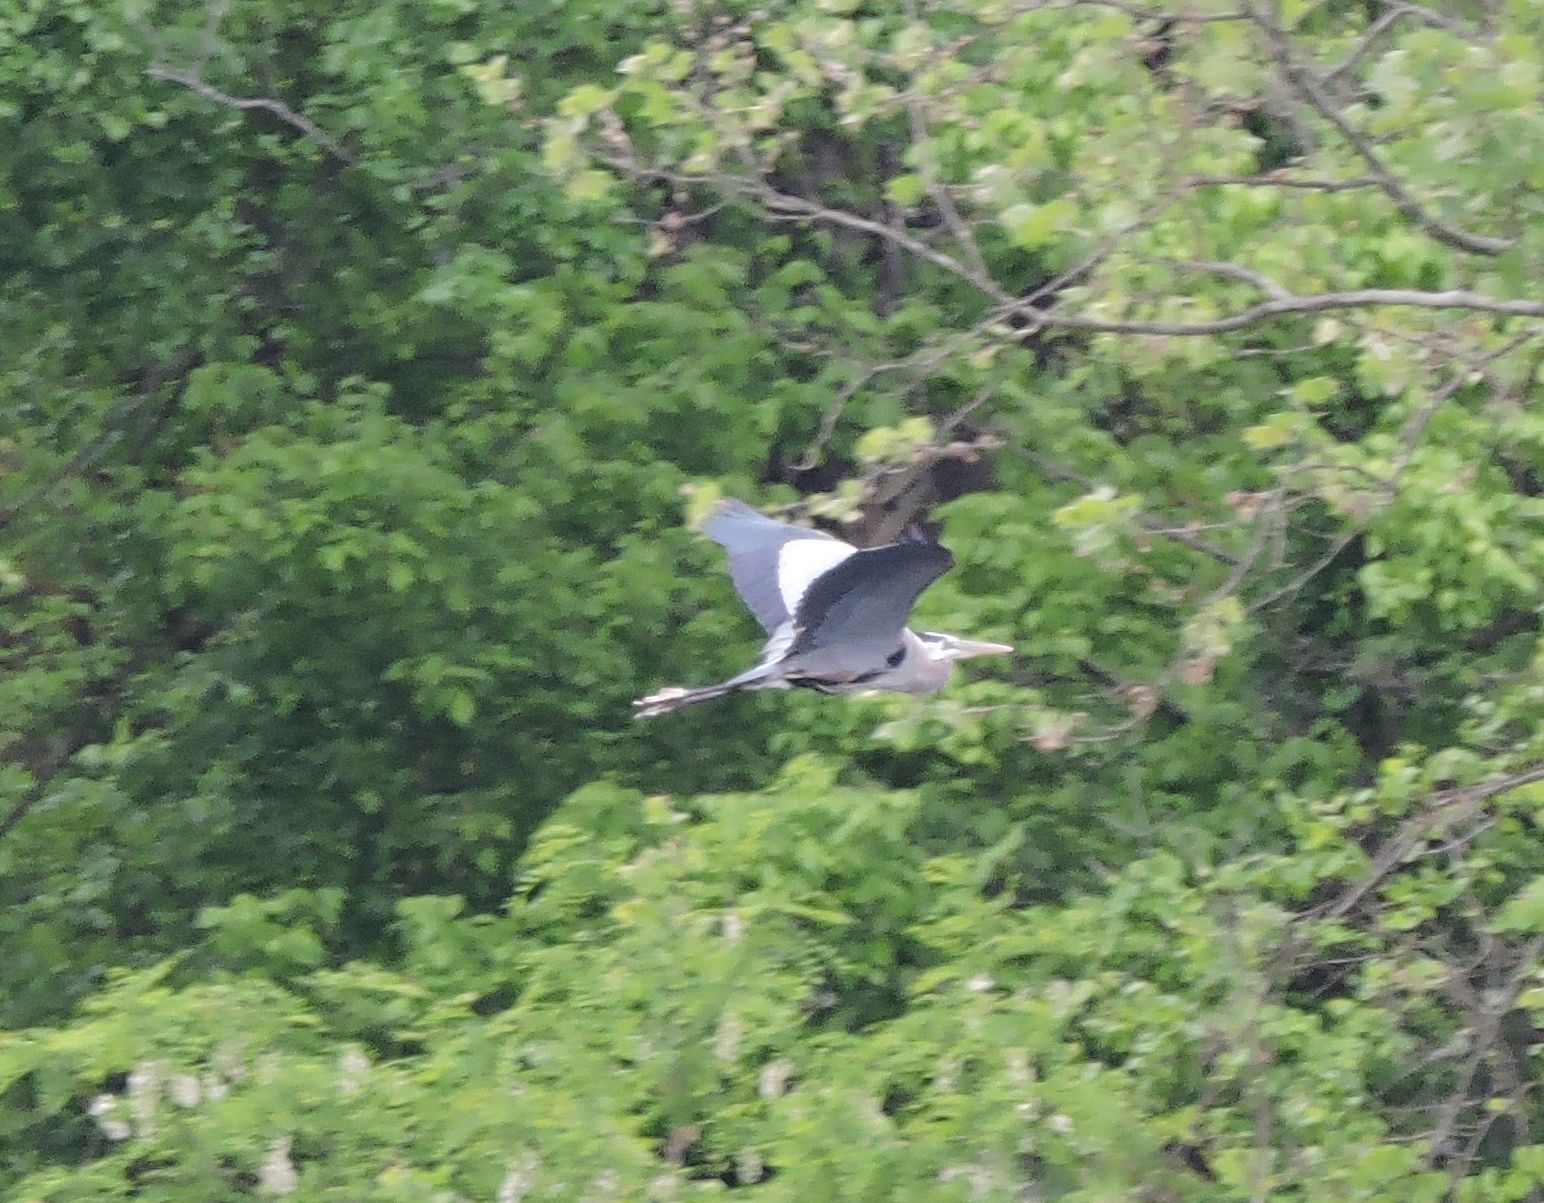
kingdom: Animalia
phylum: Chordata
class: Aves
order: Pelecaniformes
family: Ardeidae
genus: Ardea
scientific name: Ardea herodias
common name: Great blue heron
